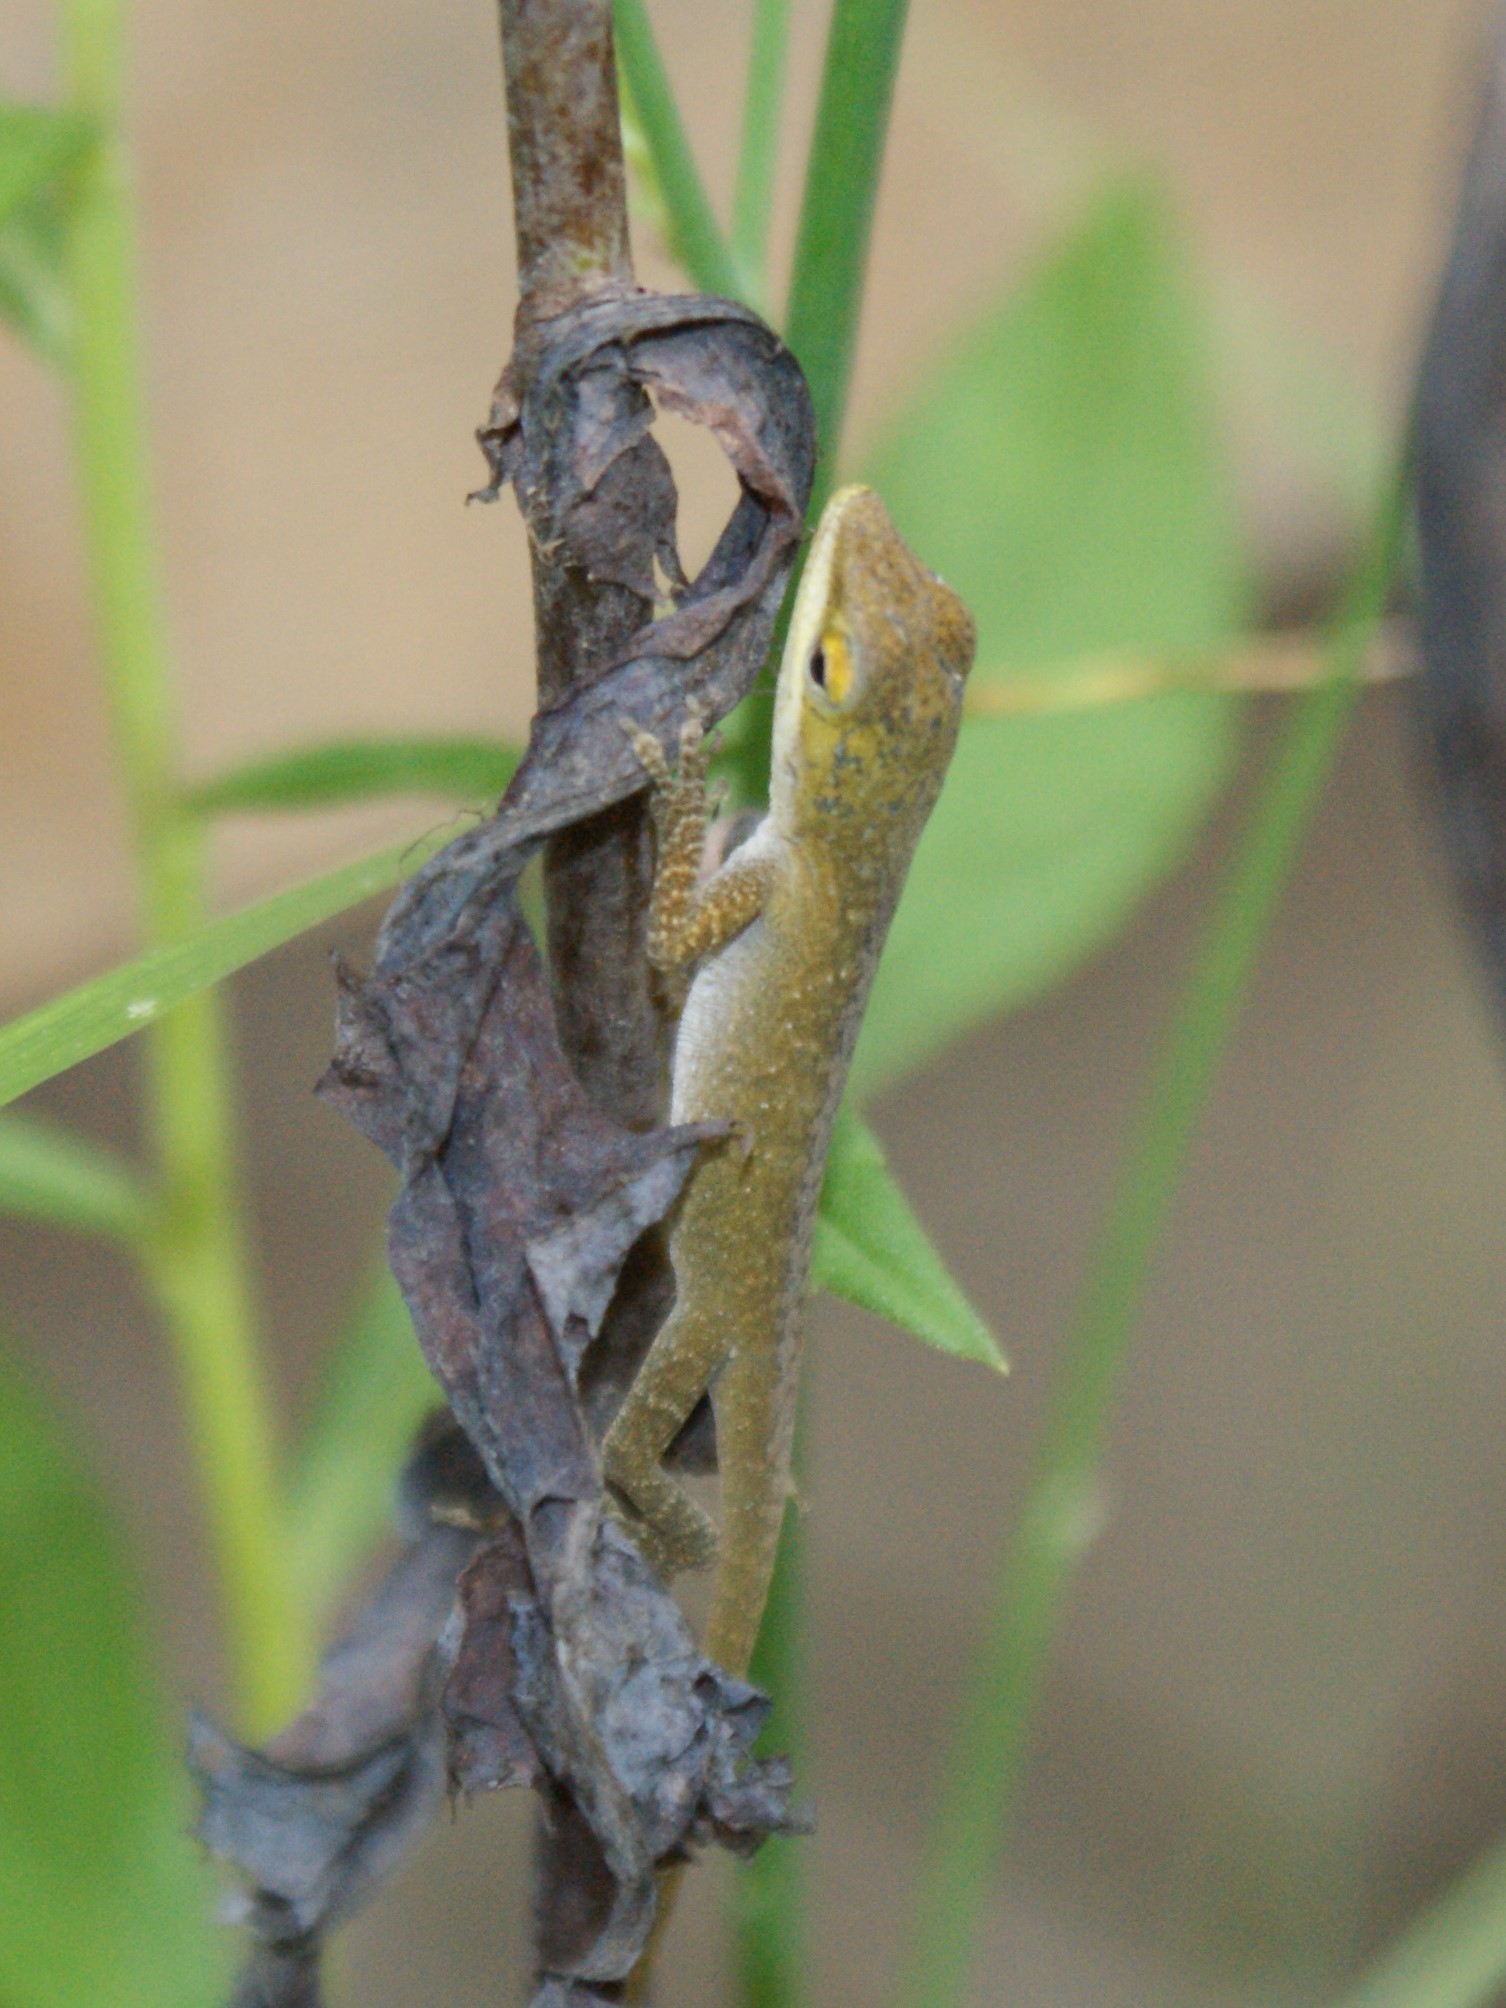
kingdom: Animalia
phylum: Chordata
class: Squamata
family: Dactyloidae
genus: Anolis
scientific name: Anolis carolinensis
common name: Green anole
